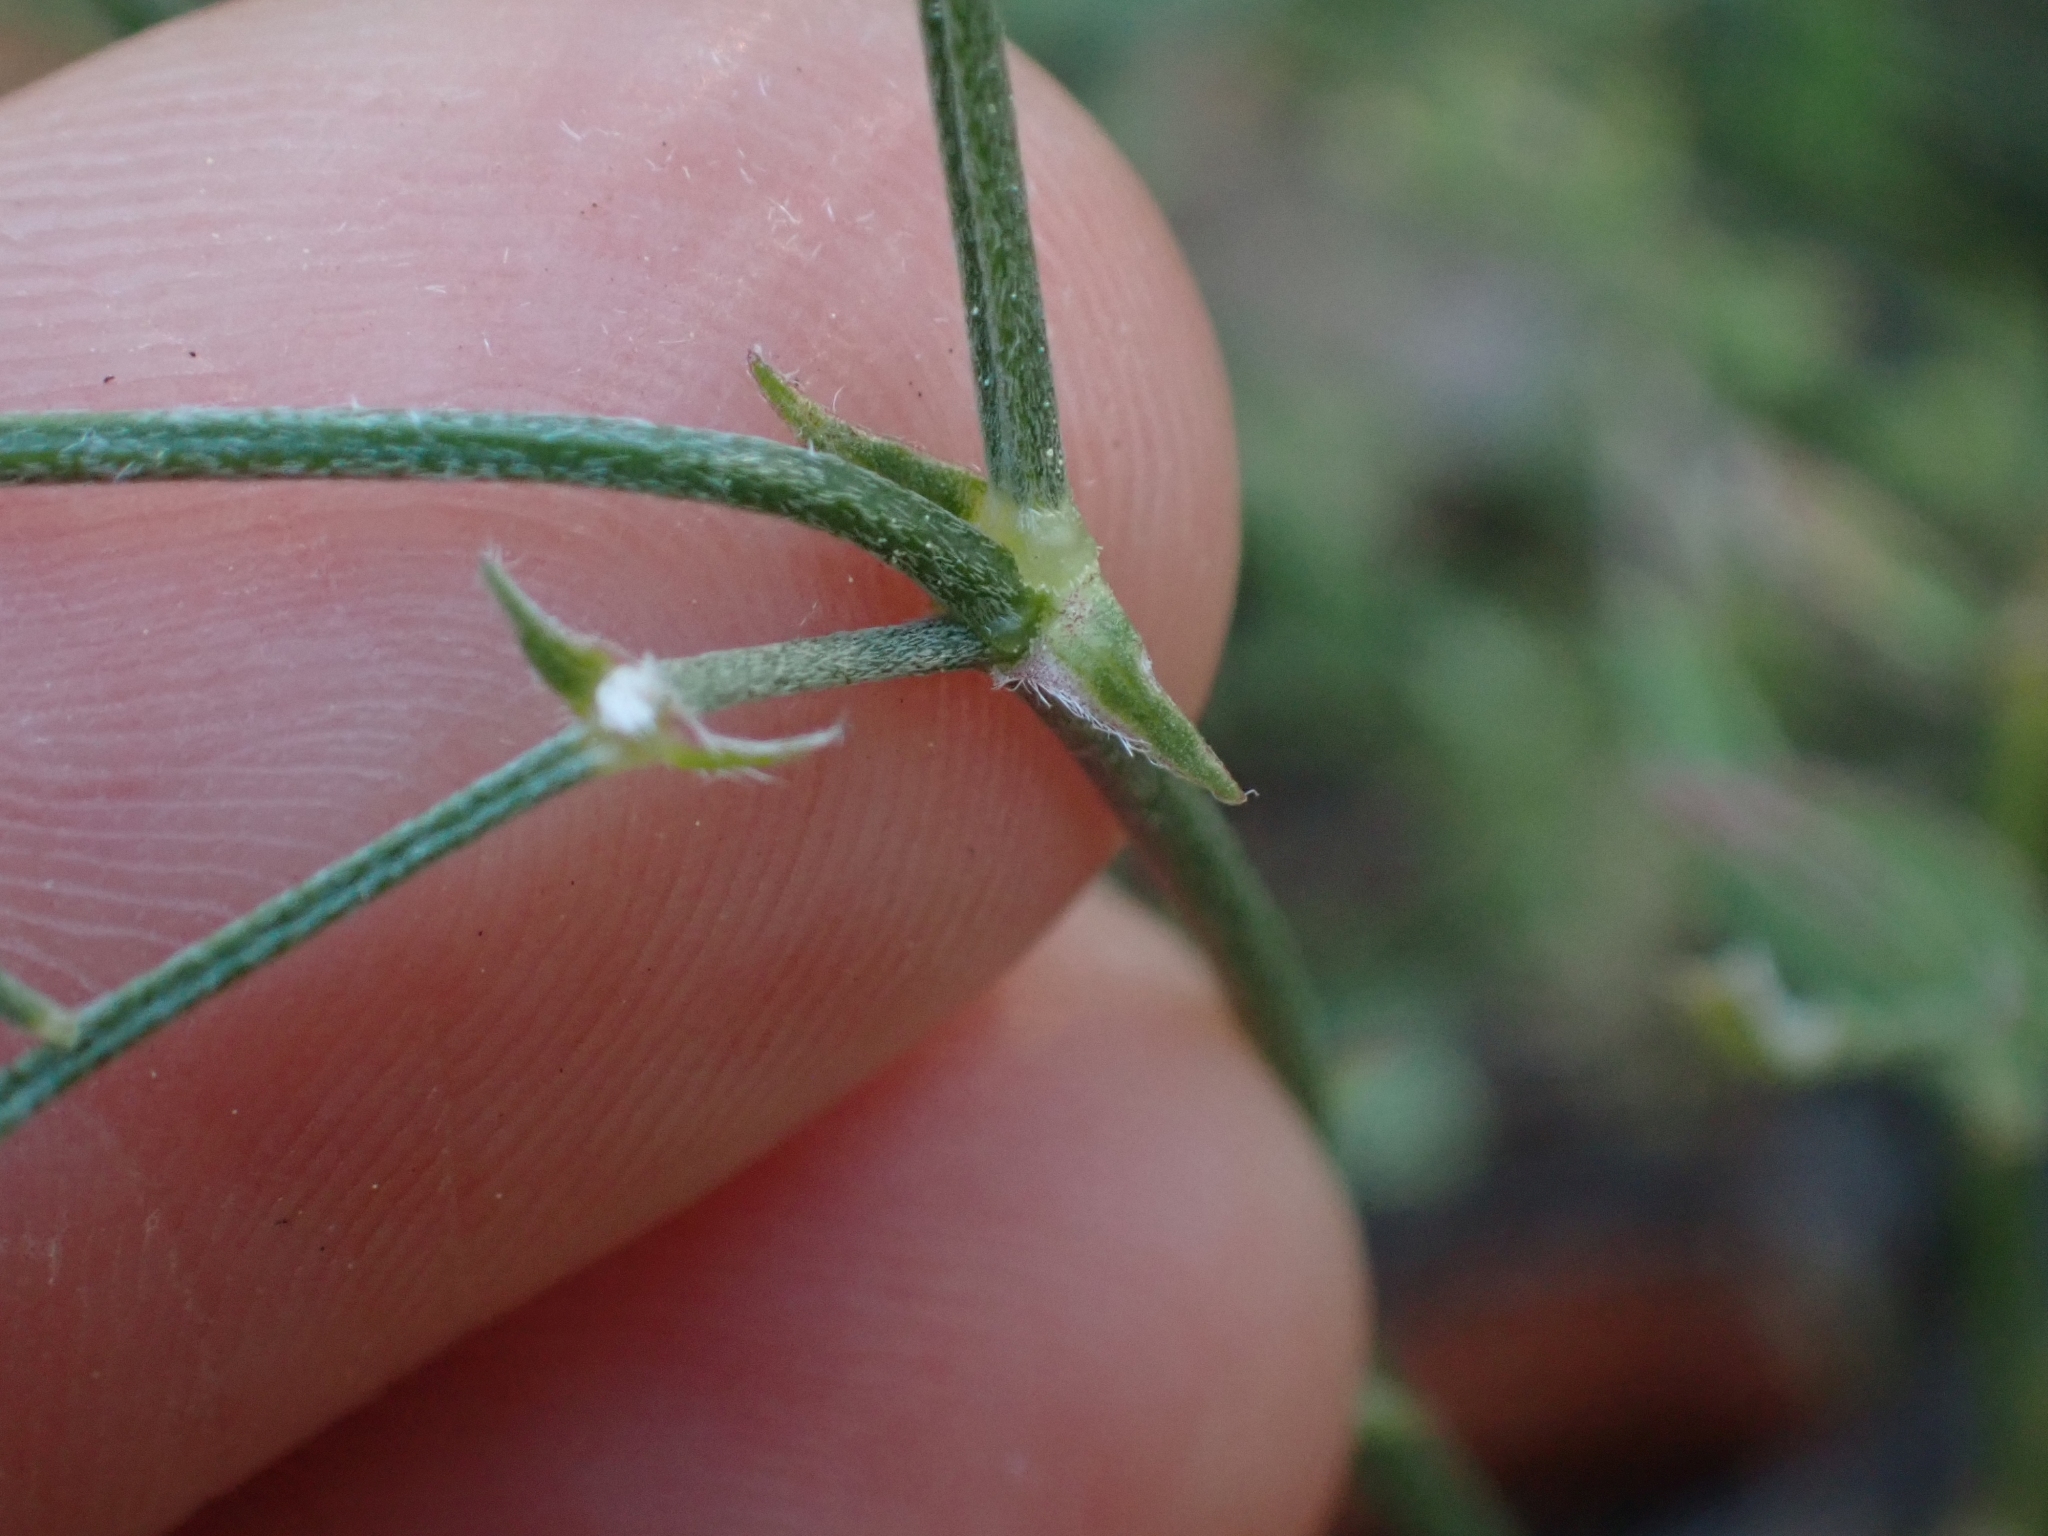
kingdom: Plantae
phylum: Tracheophyta
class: Magnoliopsida
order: Fabales
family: Fabaceae
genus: Astragalus
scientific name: Astragalus miser
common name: Timber milkvetch
